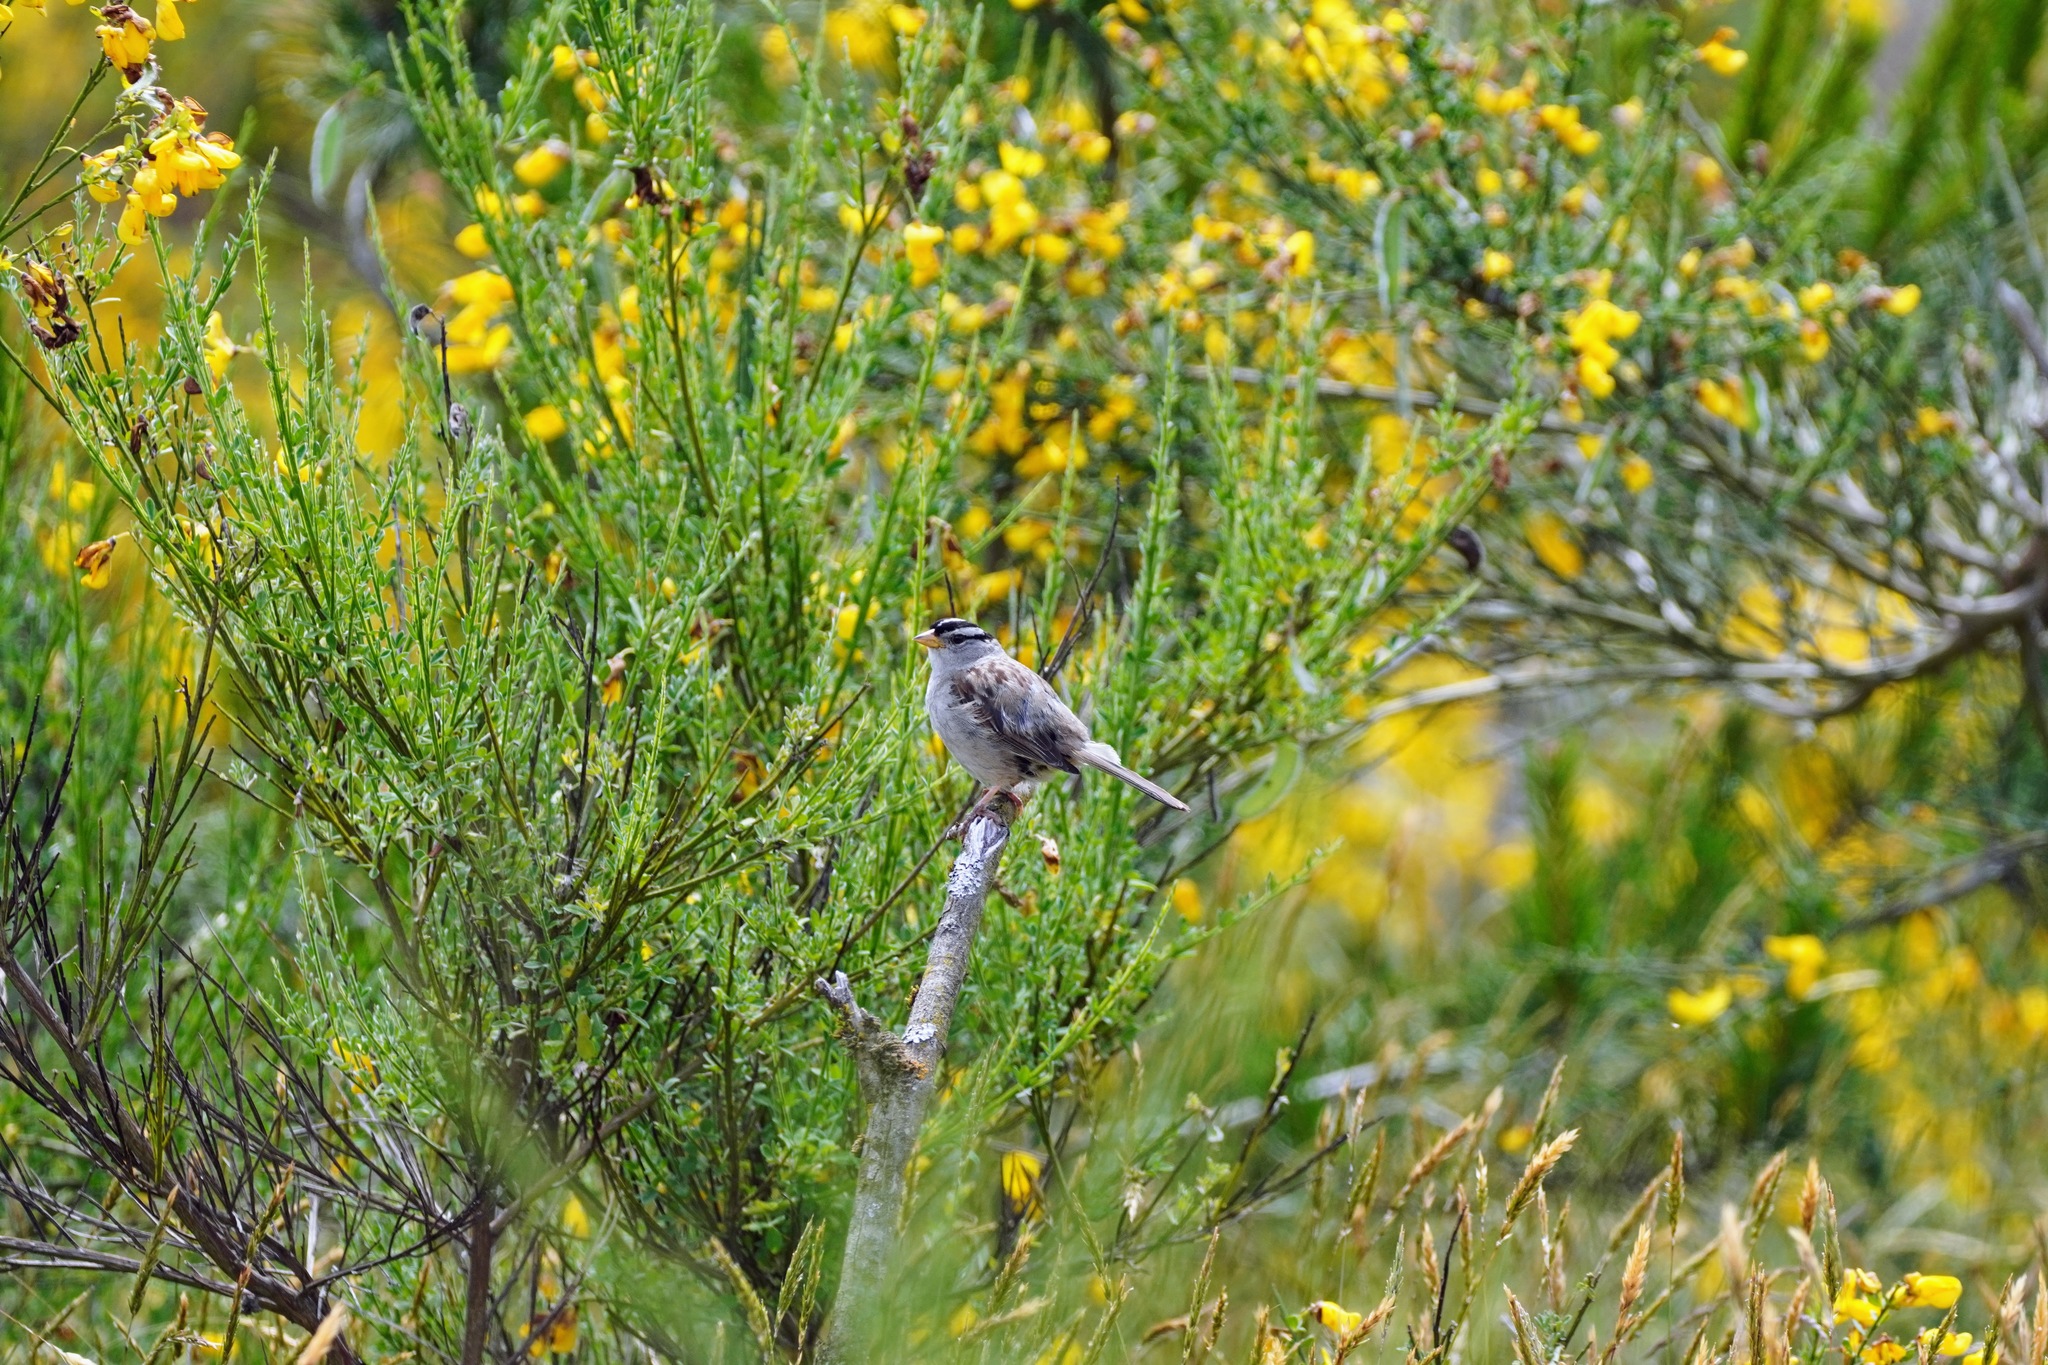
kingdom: Animalia
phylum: Chordata
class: Aves
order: Passeriformes
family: Passerellidae
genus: Zonotrichia
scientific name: Zonotrichia leucophrys
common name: White-crowned sparrow
